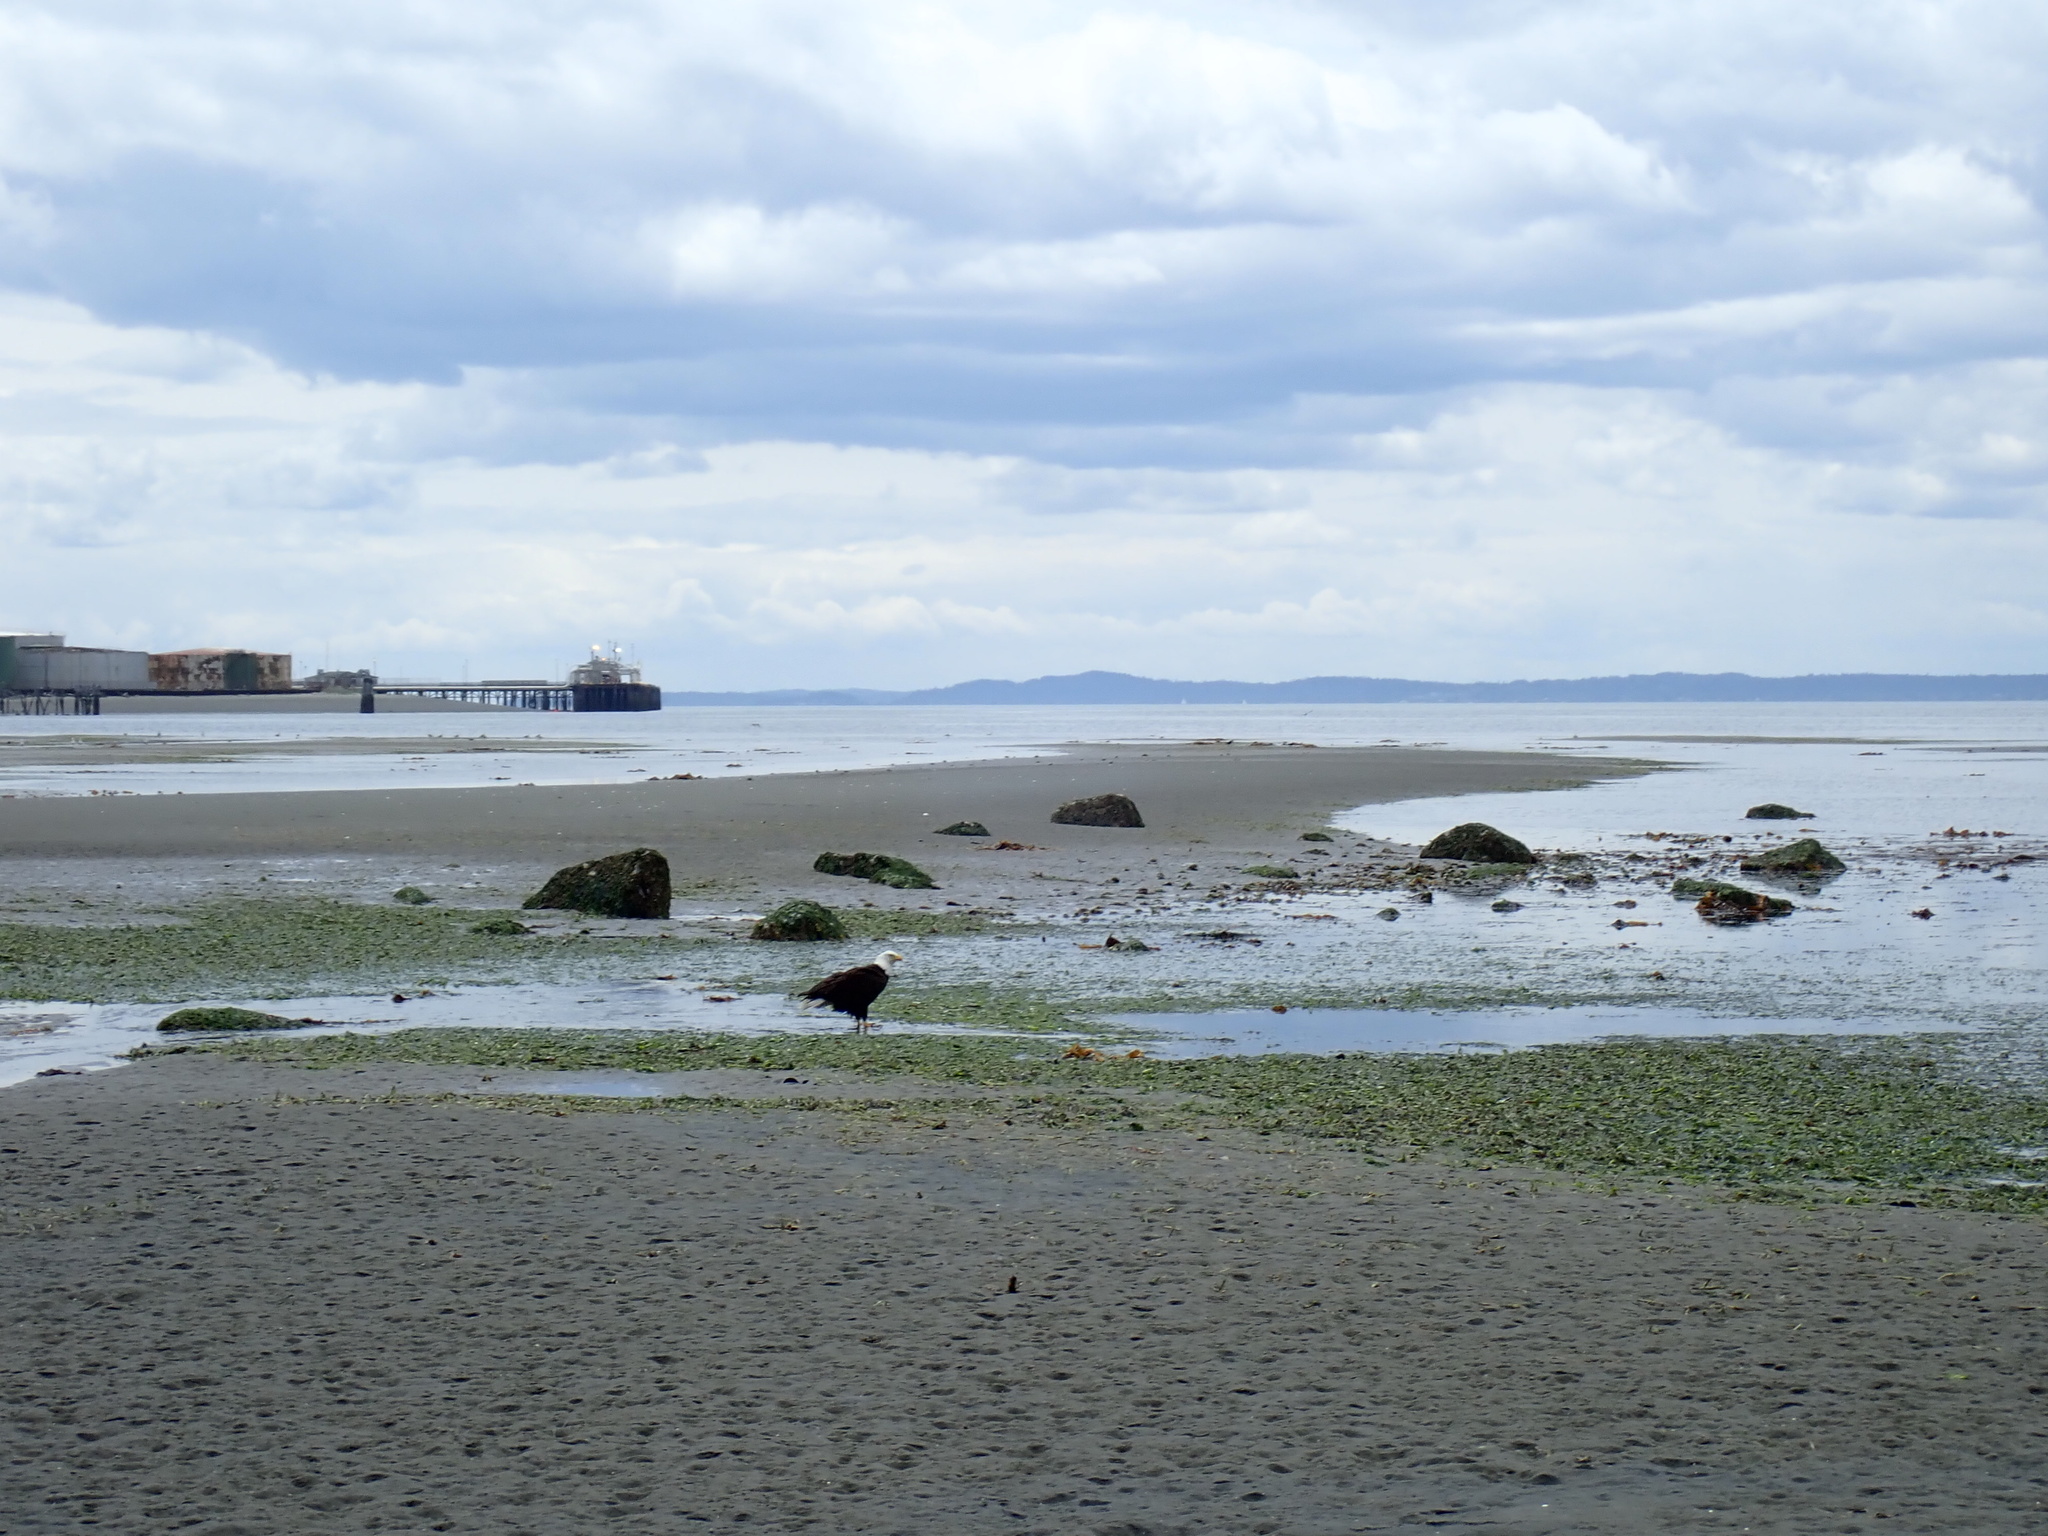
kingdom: Animalia
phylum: Chordata
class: Aves
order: Accipitriformes
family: Accipitridae
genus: Haliaeetus
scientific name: Haliaeetus leucocephalus
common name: Bald eagle
